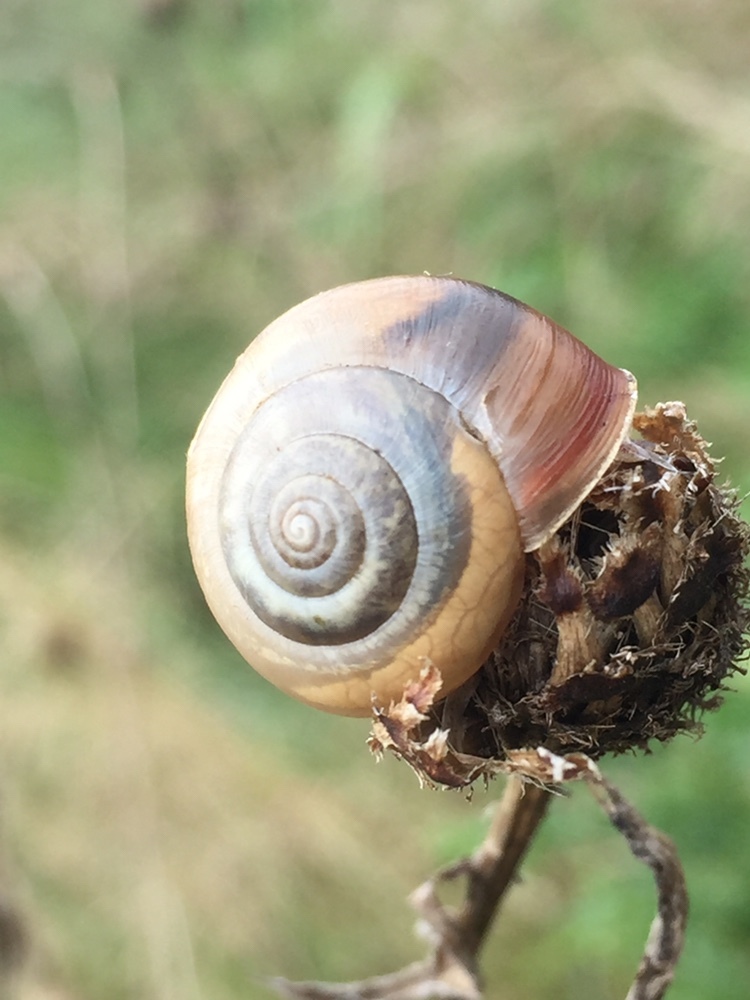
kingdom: Animalia
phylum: Mollusca
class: Gastropoda
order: Stylommatophora
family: Hygromiidae
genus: Monacha
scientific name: Monacha cantiana
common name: Kentish snail
